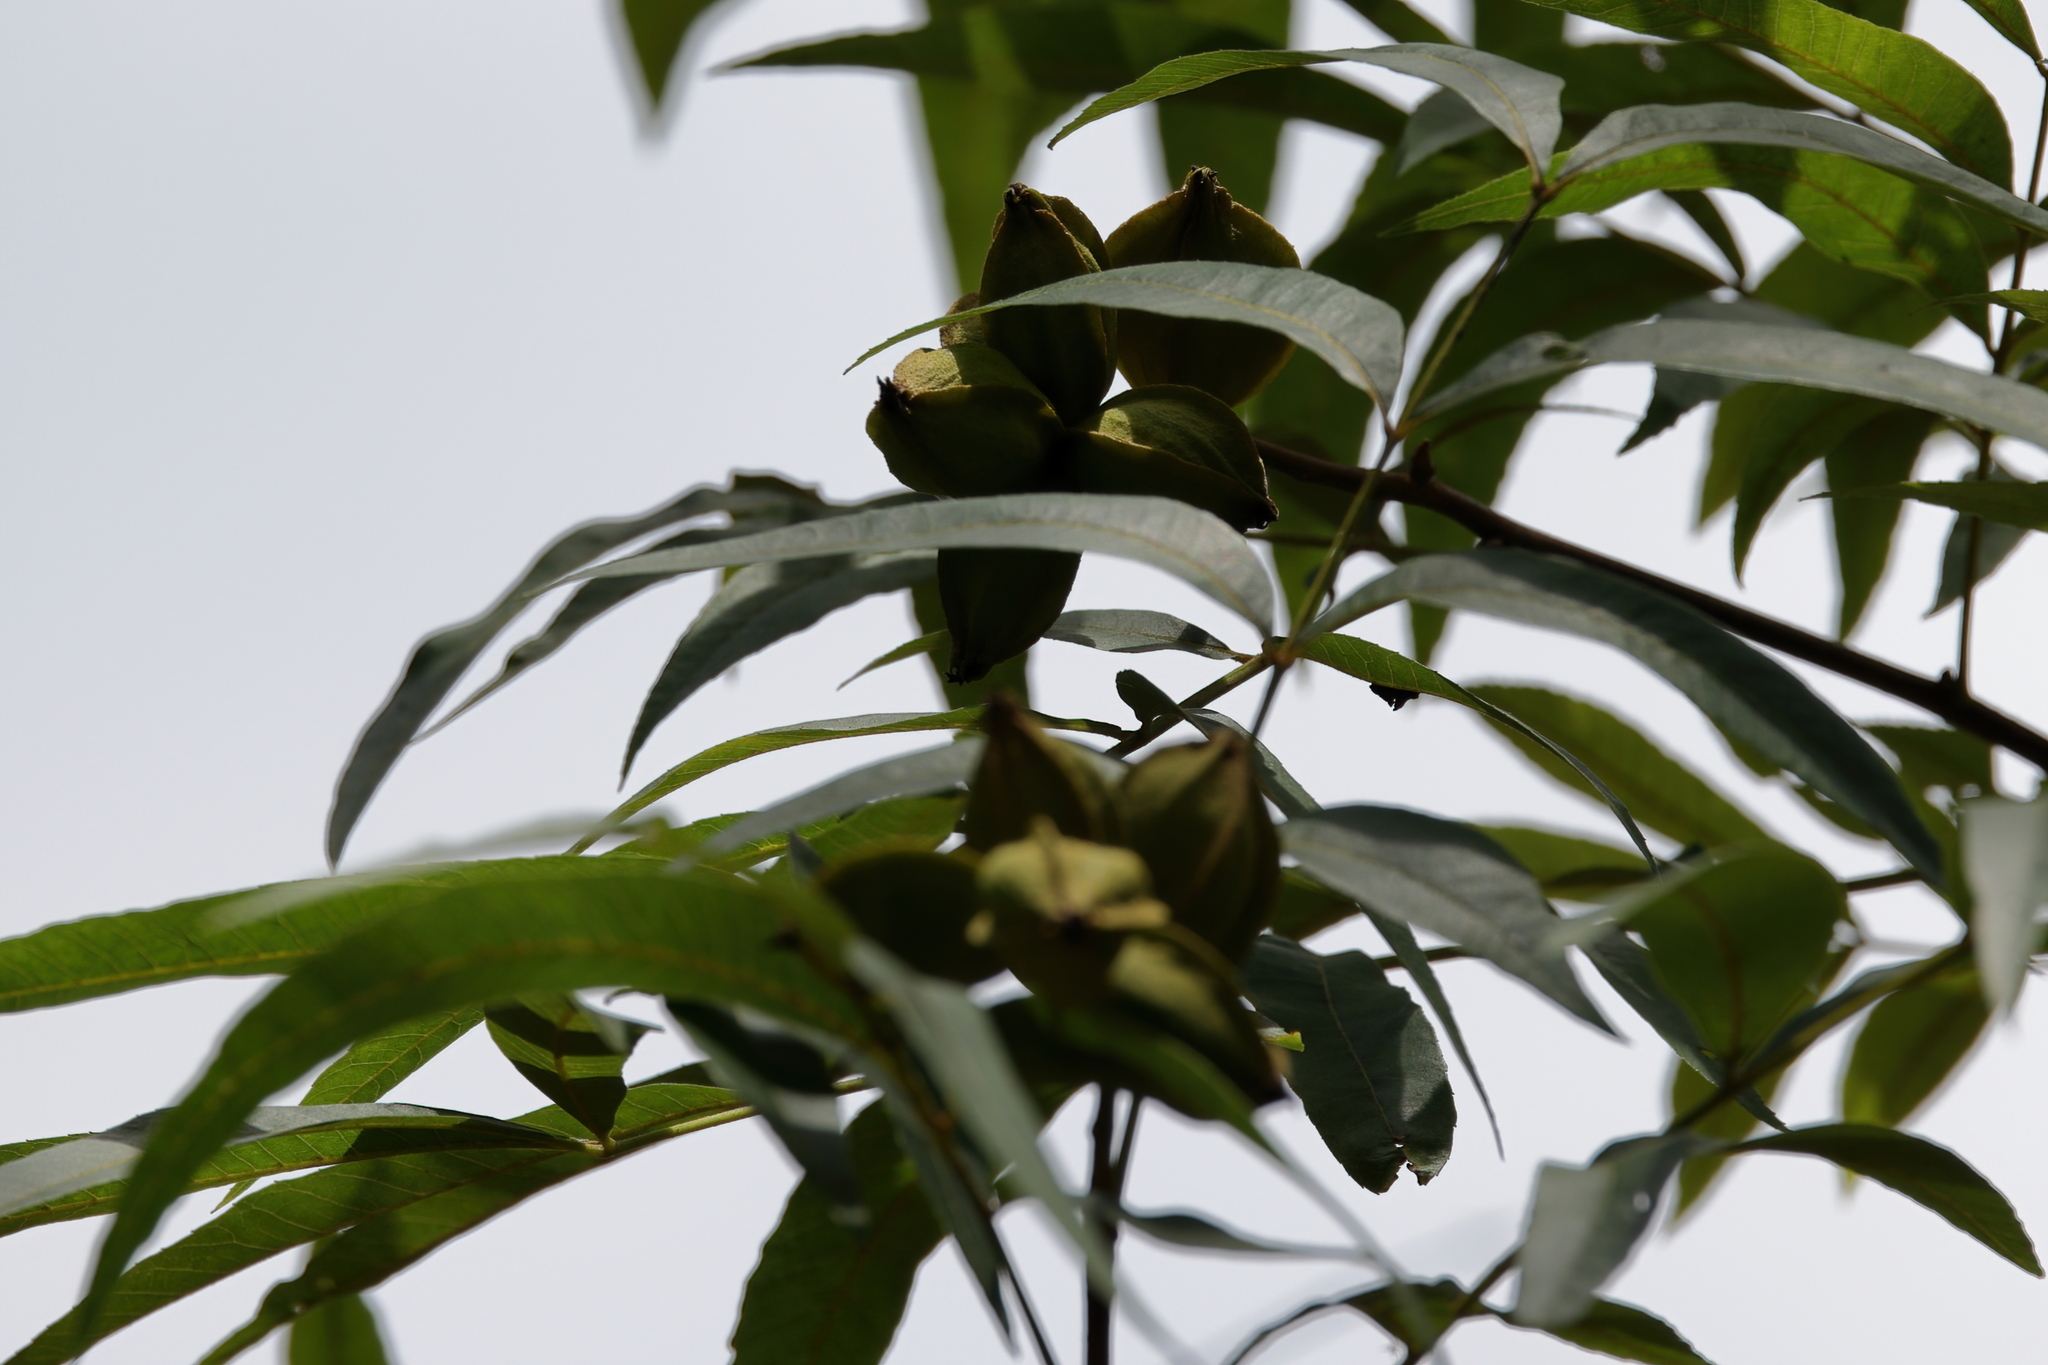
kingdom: Plantae
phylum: Tracheophyta
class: Magnoliopsida
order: Fagales
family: Juglandaceae
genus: Carya
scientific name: Carya aquatica
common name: Water hickory
